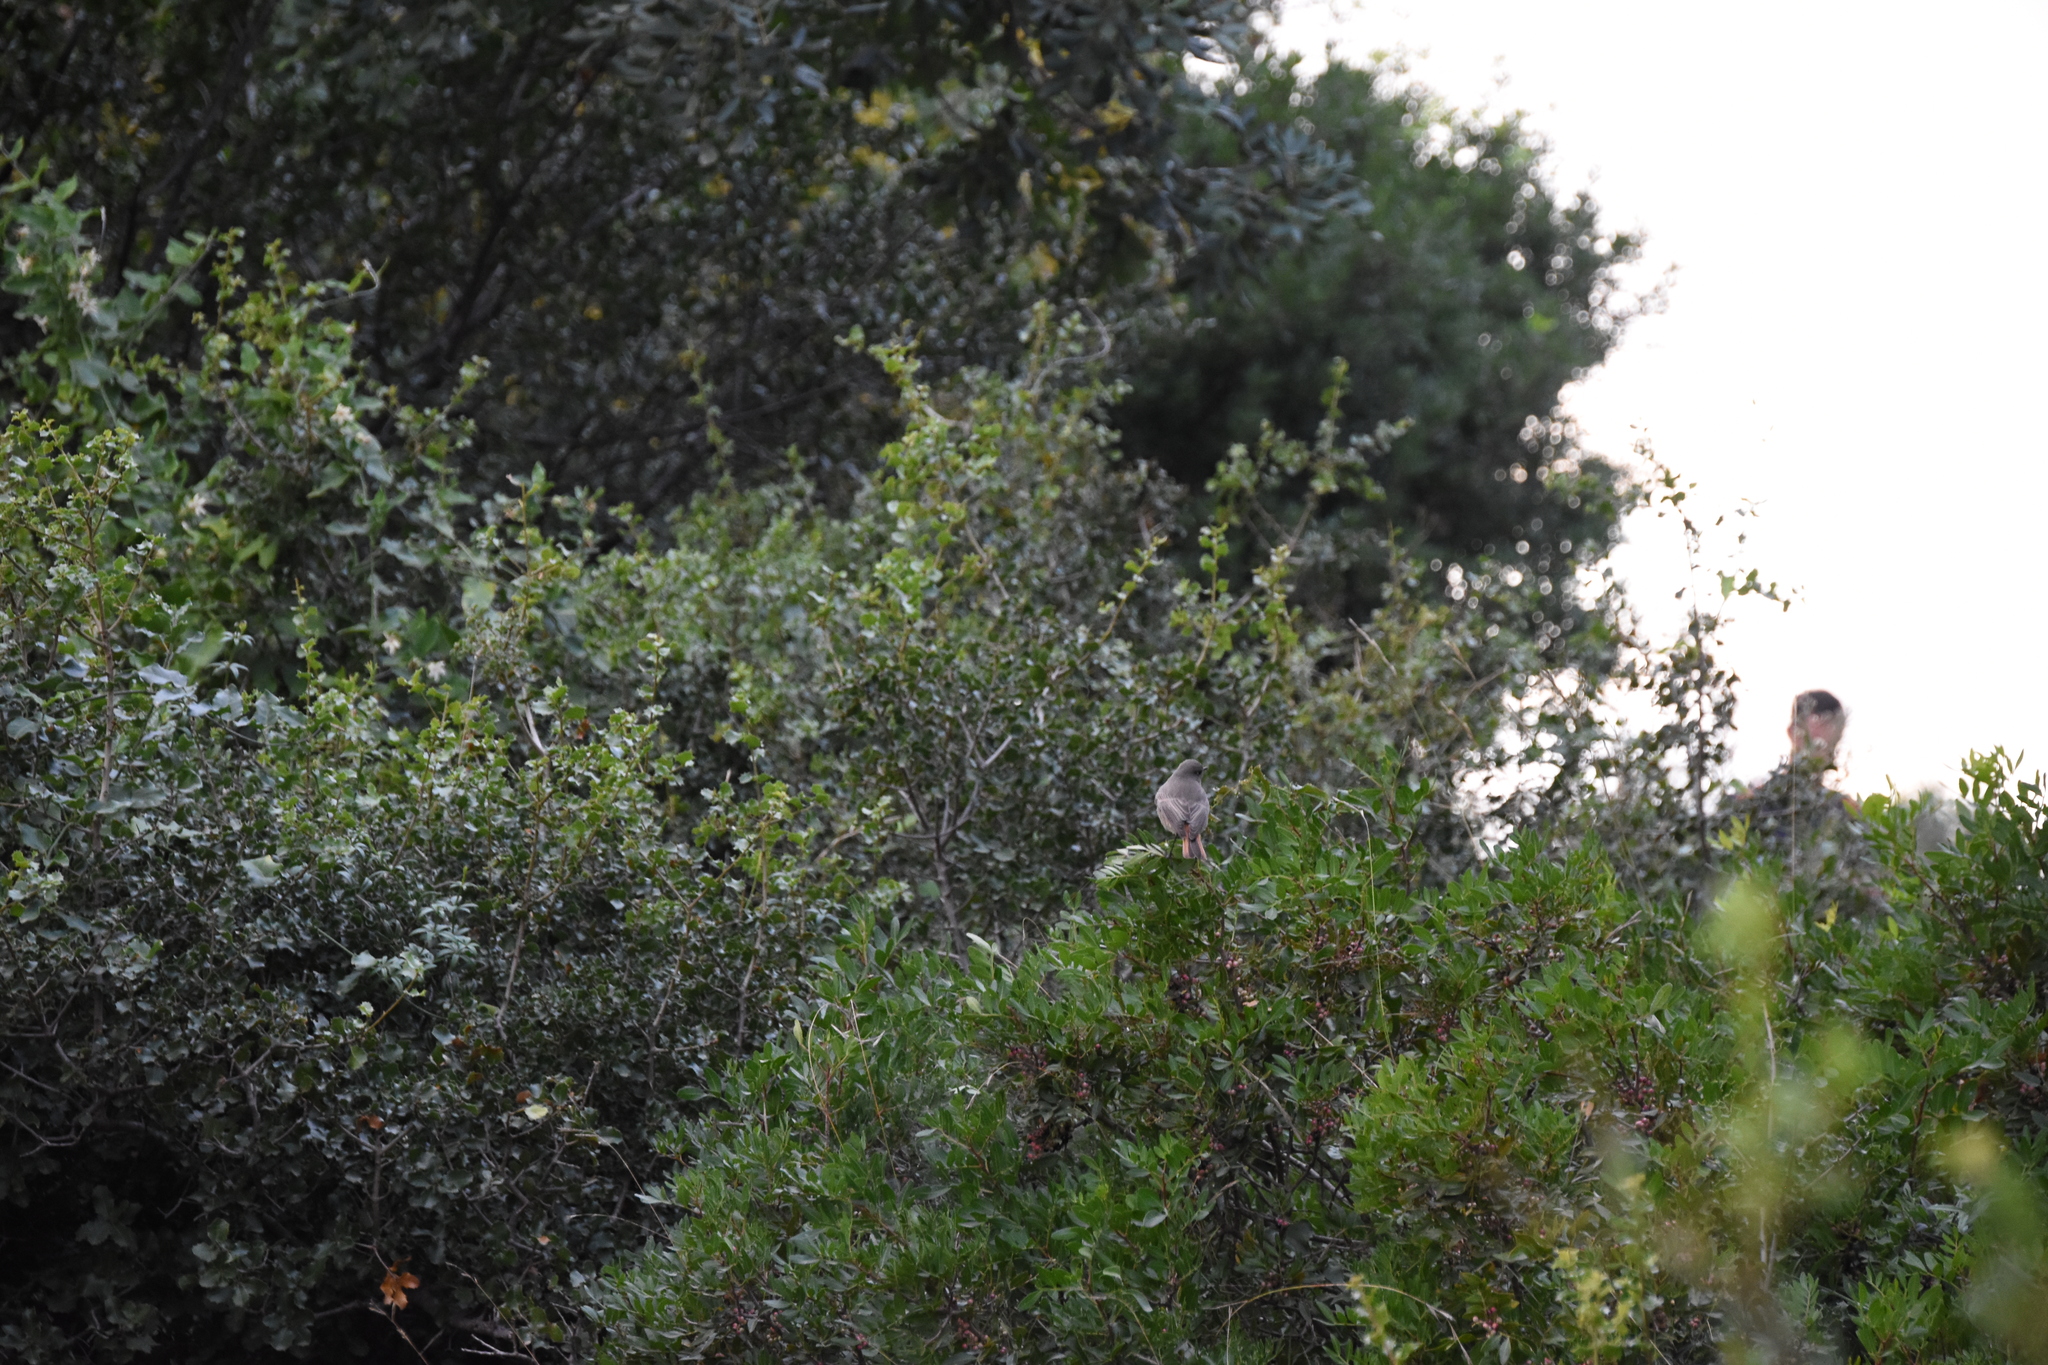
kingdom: Animalia
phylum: Chordata
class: Aves
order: Passeriformes
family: Muscicapidae
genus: Phoenicurus
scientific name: Phoenicurus ochruros
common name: Black redstart
